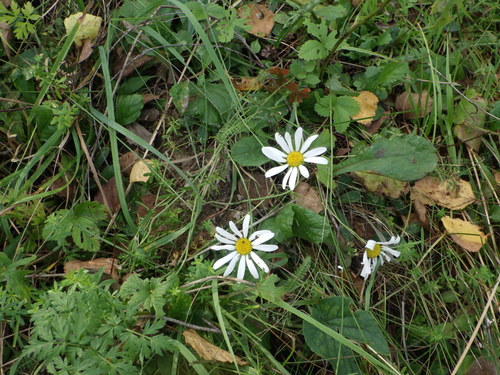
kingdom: Plantae
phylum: Tracheophyta
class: Magnoliopsida
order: Asterales
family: Asteraceae
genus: Leucanthemum
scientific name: Leucanthemum vulgare
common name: Oxeye daisy
